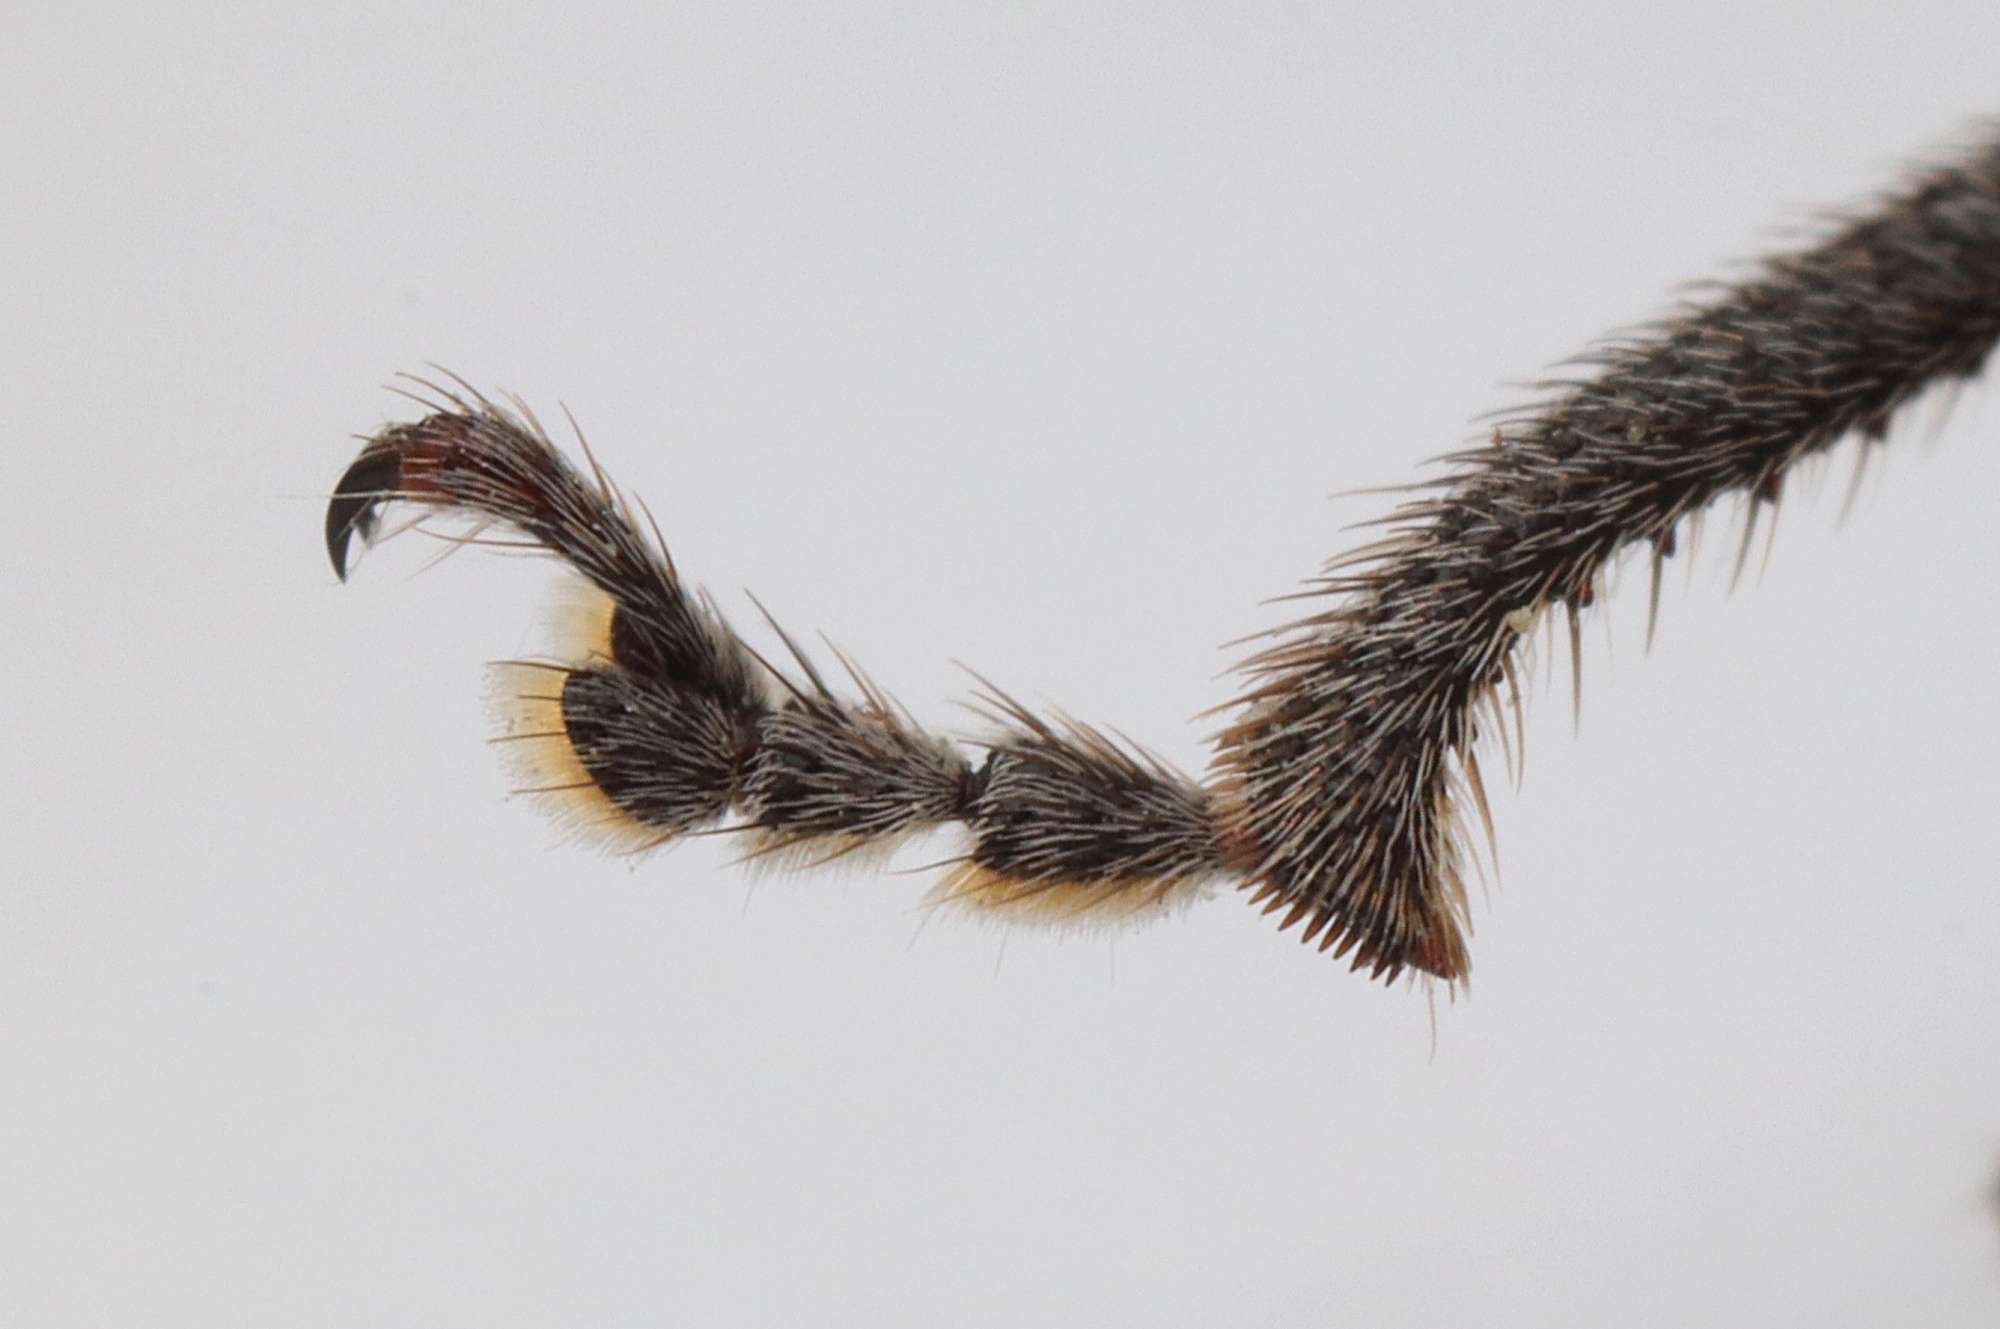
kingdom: Animalia
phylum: Arthropoda
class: Insecta
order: Coleoptera
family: Curculionidae
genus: Naupactus
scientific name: Naupactus leucoloma
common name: Whitefringed beetle
